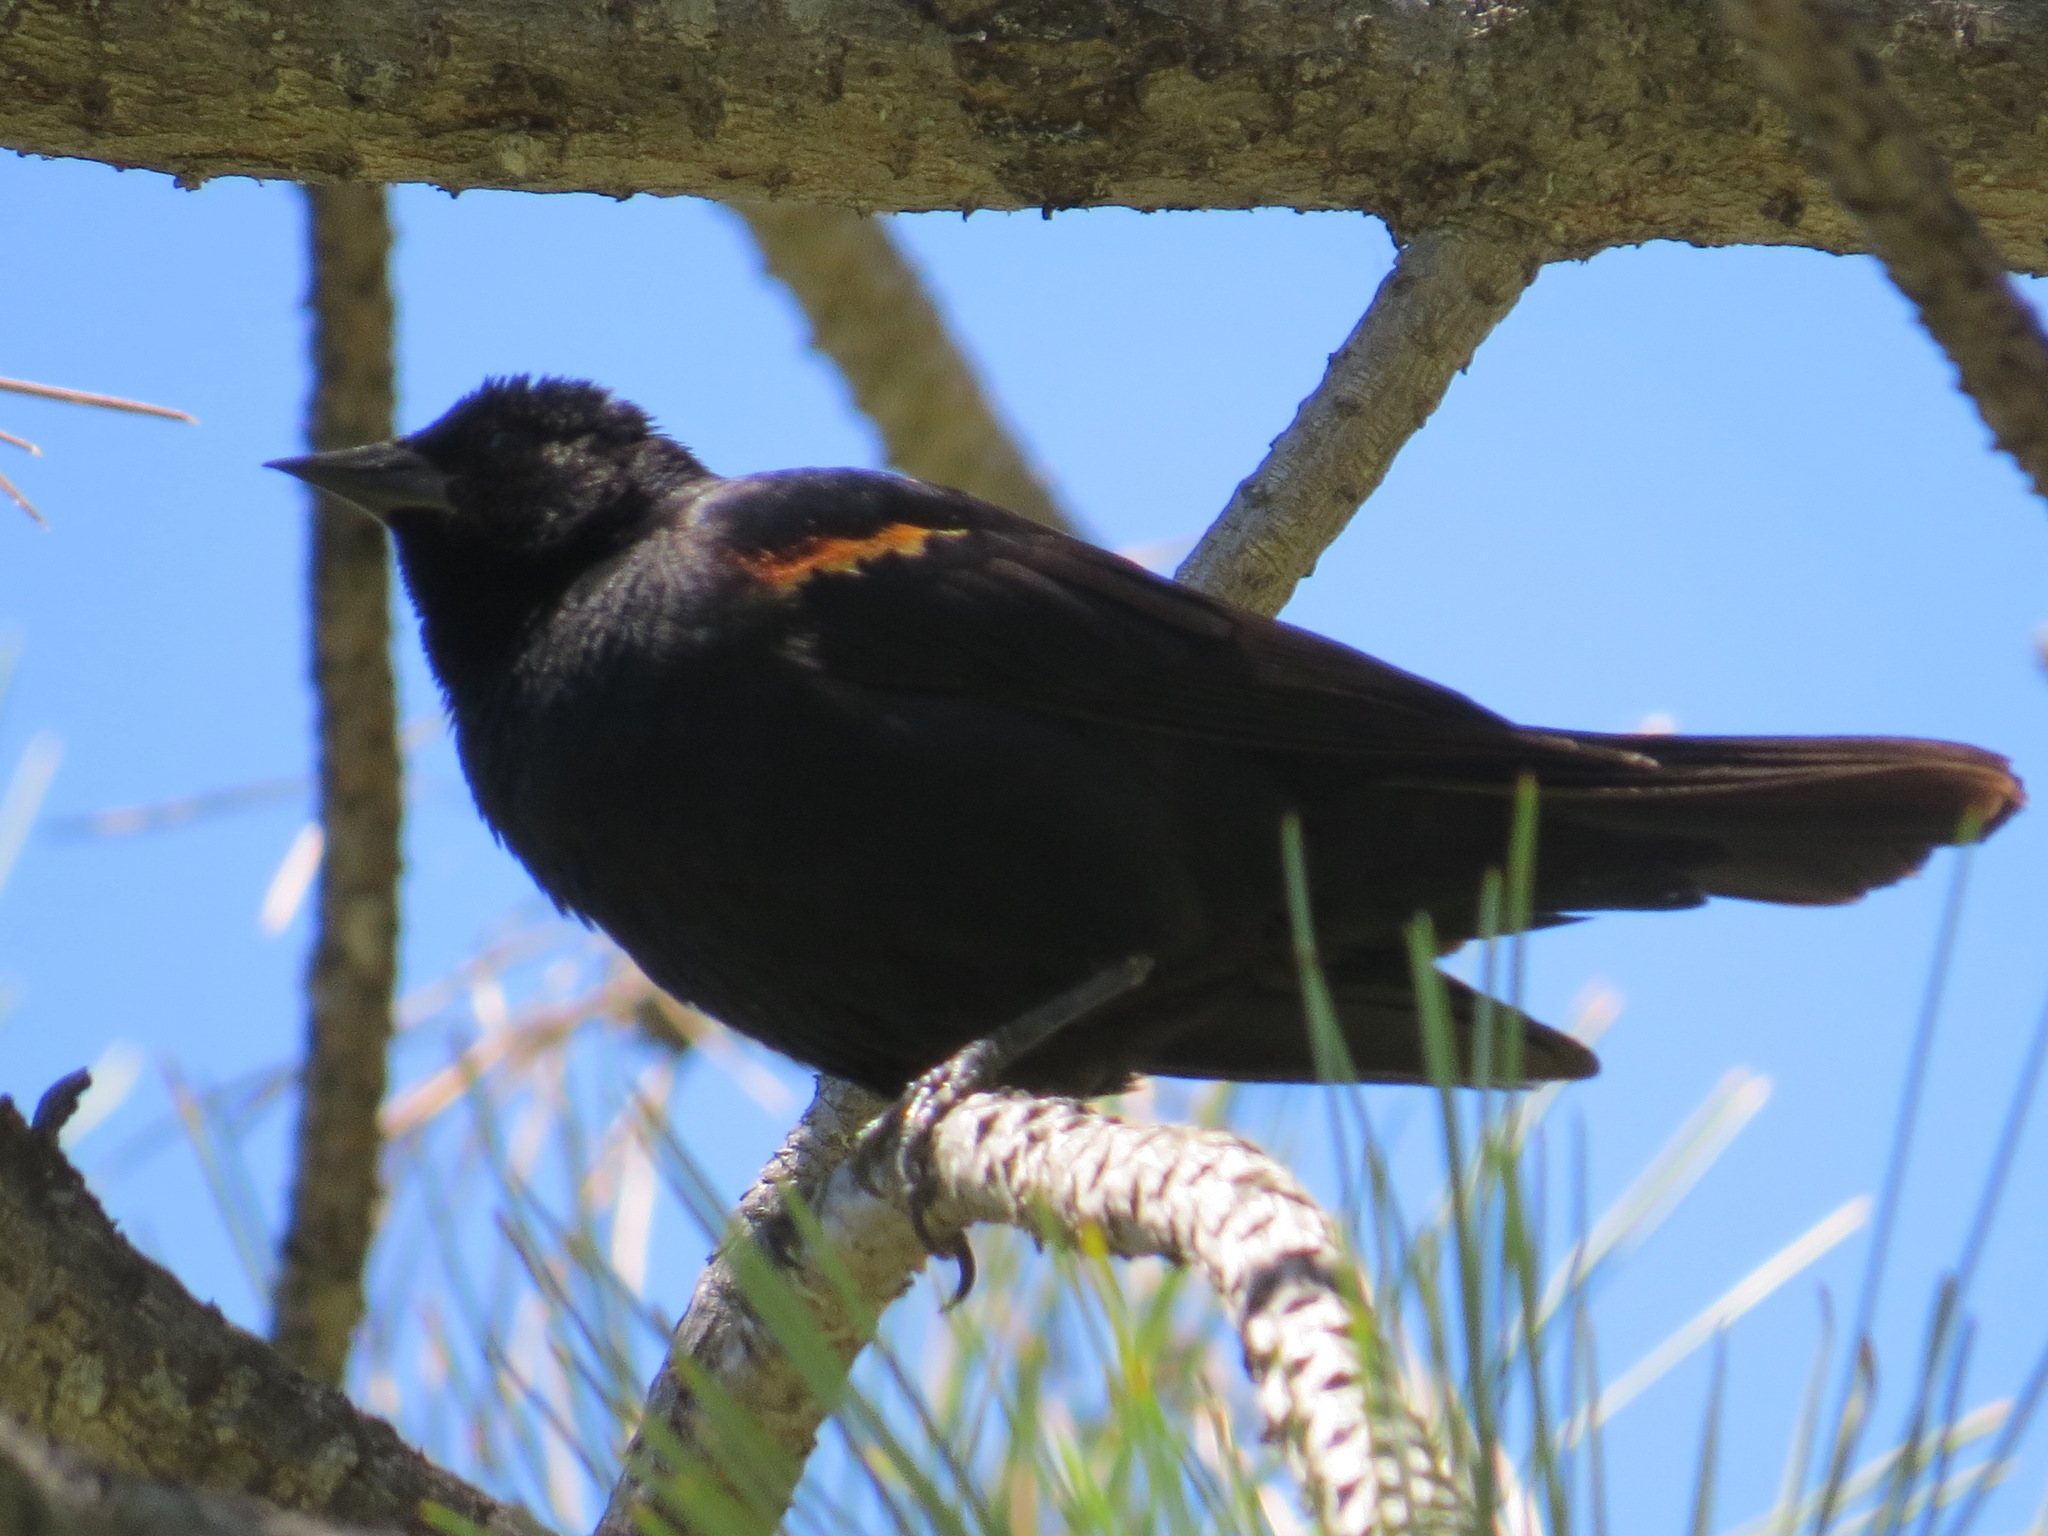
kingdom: Animalia
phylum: Chordata
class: Aves
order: Passeriformes
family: Icteridae
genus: Agelaius
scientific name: Agelaius phoeniceus
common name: Red-winged blackbird
